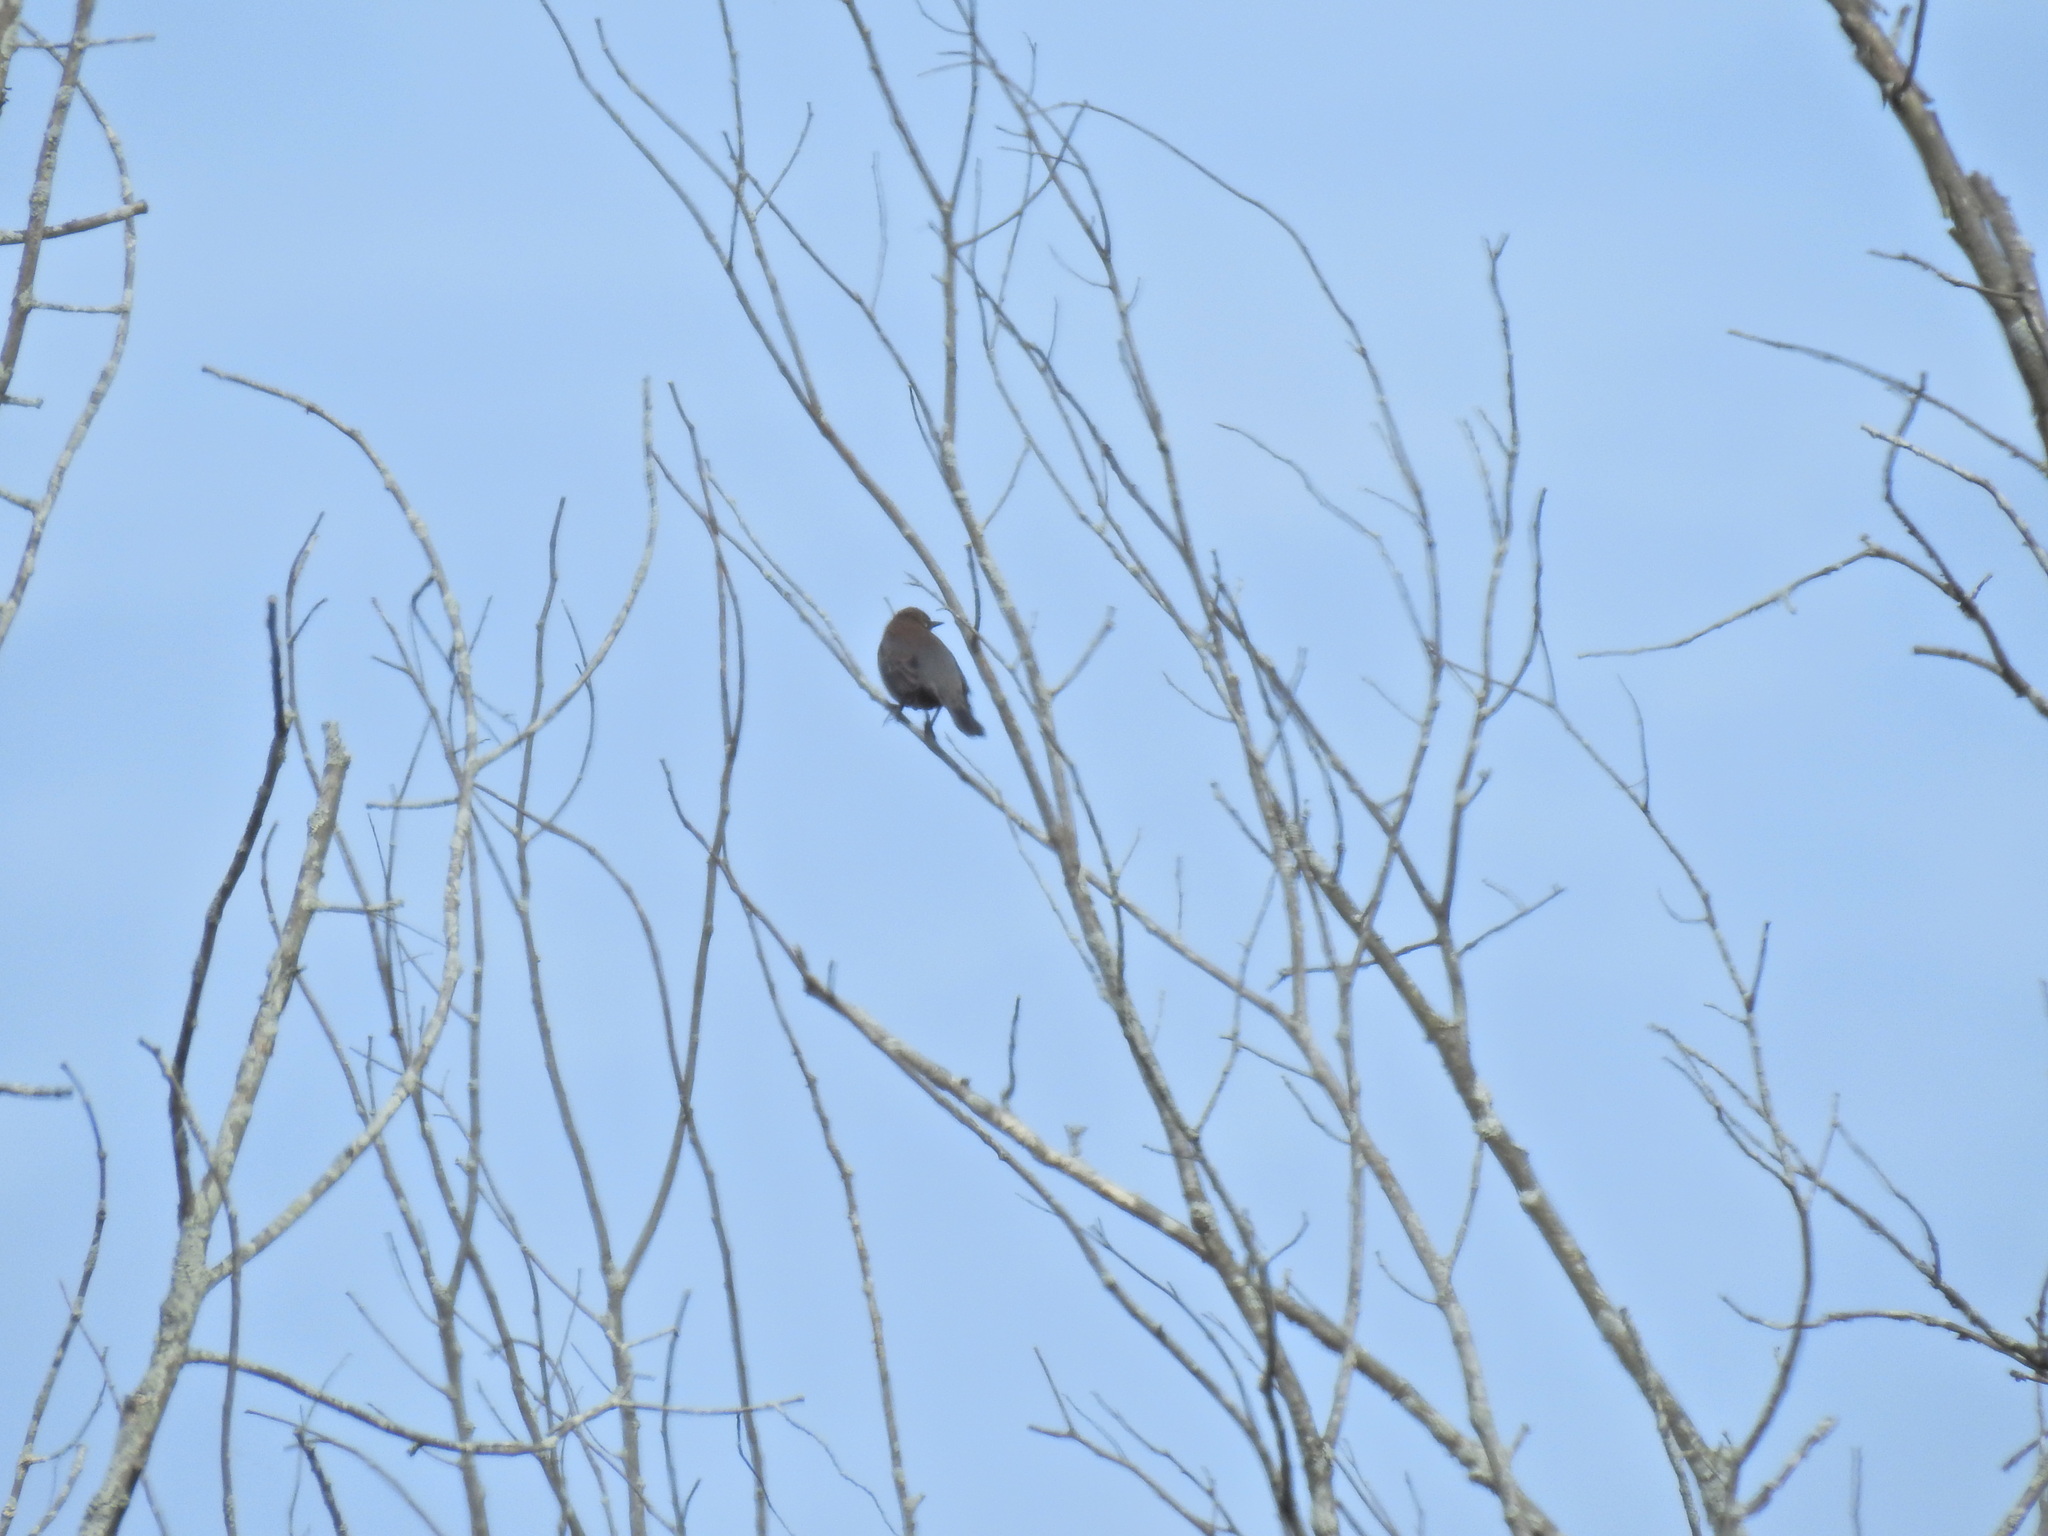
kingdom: Animalia
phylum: Chordata
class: Aves
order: Passeriformes
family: Icteridae
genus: Euphagus
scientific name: Euphagus carolinus
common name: Rusty blackbird
